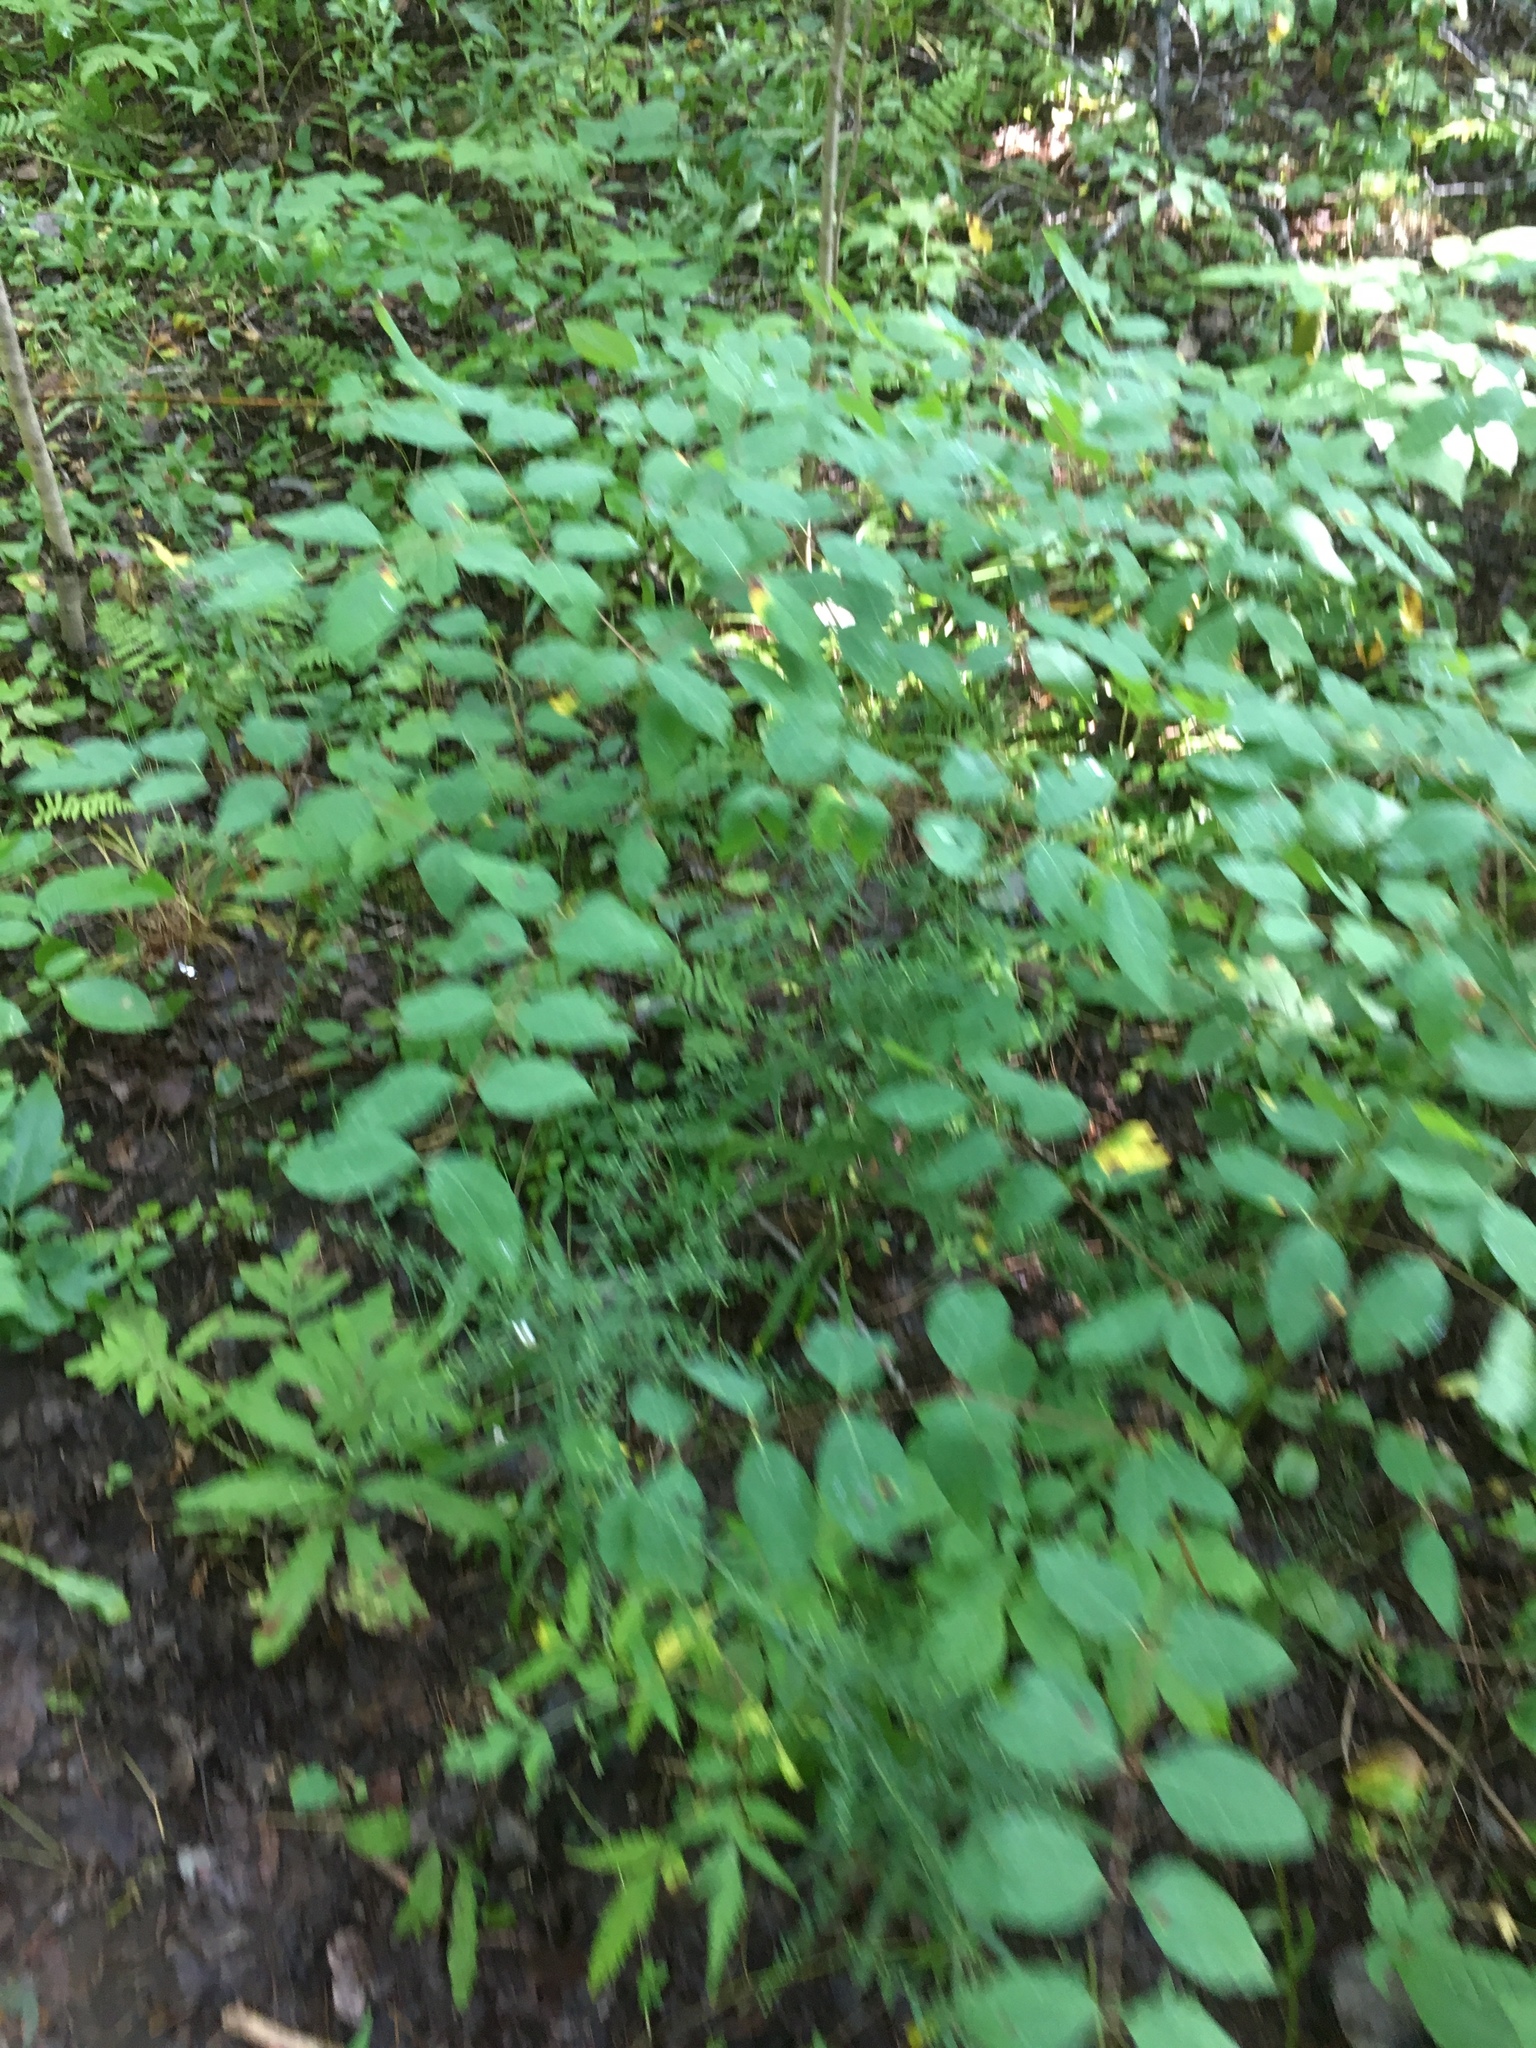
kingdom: Plantae
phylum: Tracheophyta
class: Magnoliopsida
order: Gentianales
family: Apocynaceae
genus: Apocynum
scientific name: Apocynum androsaemifolium
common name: Spreading dogbane
